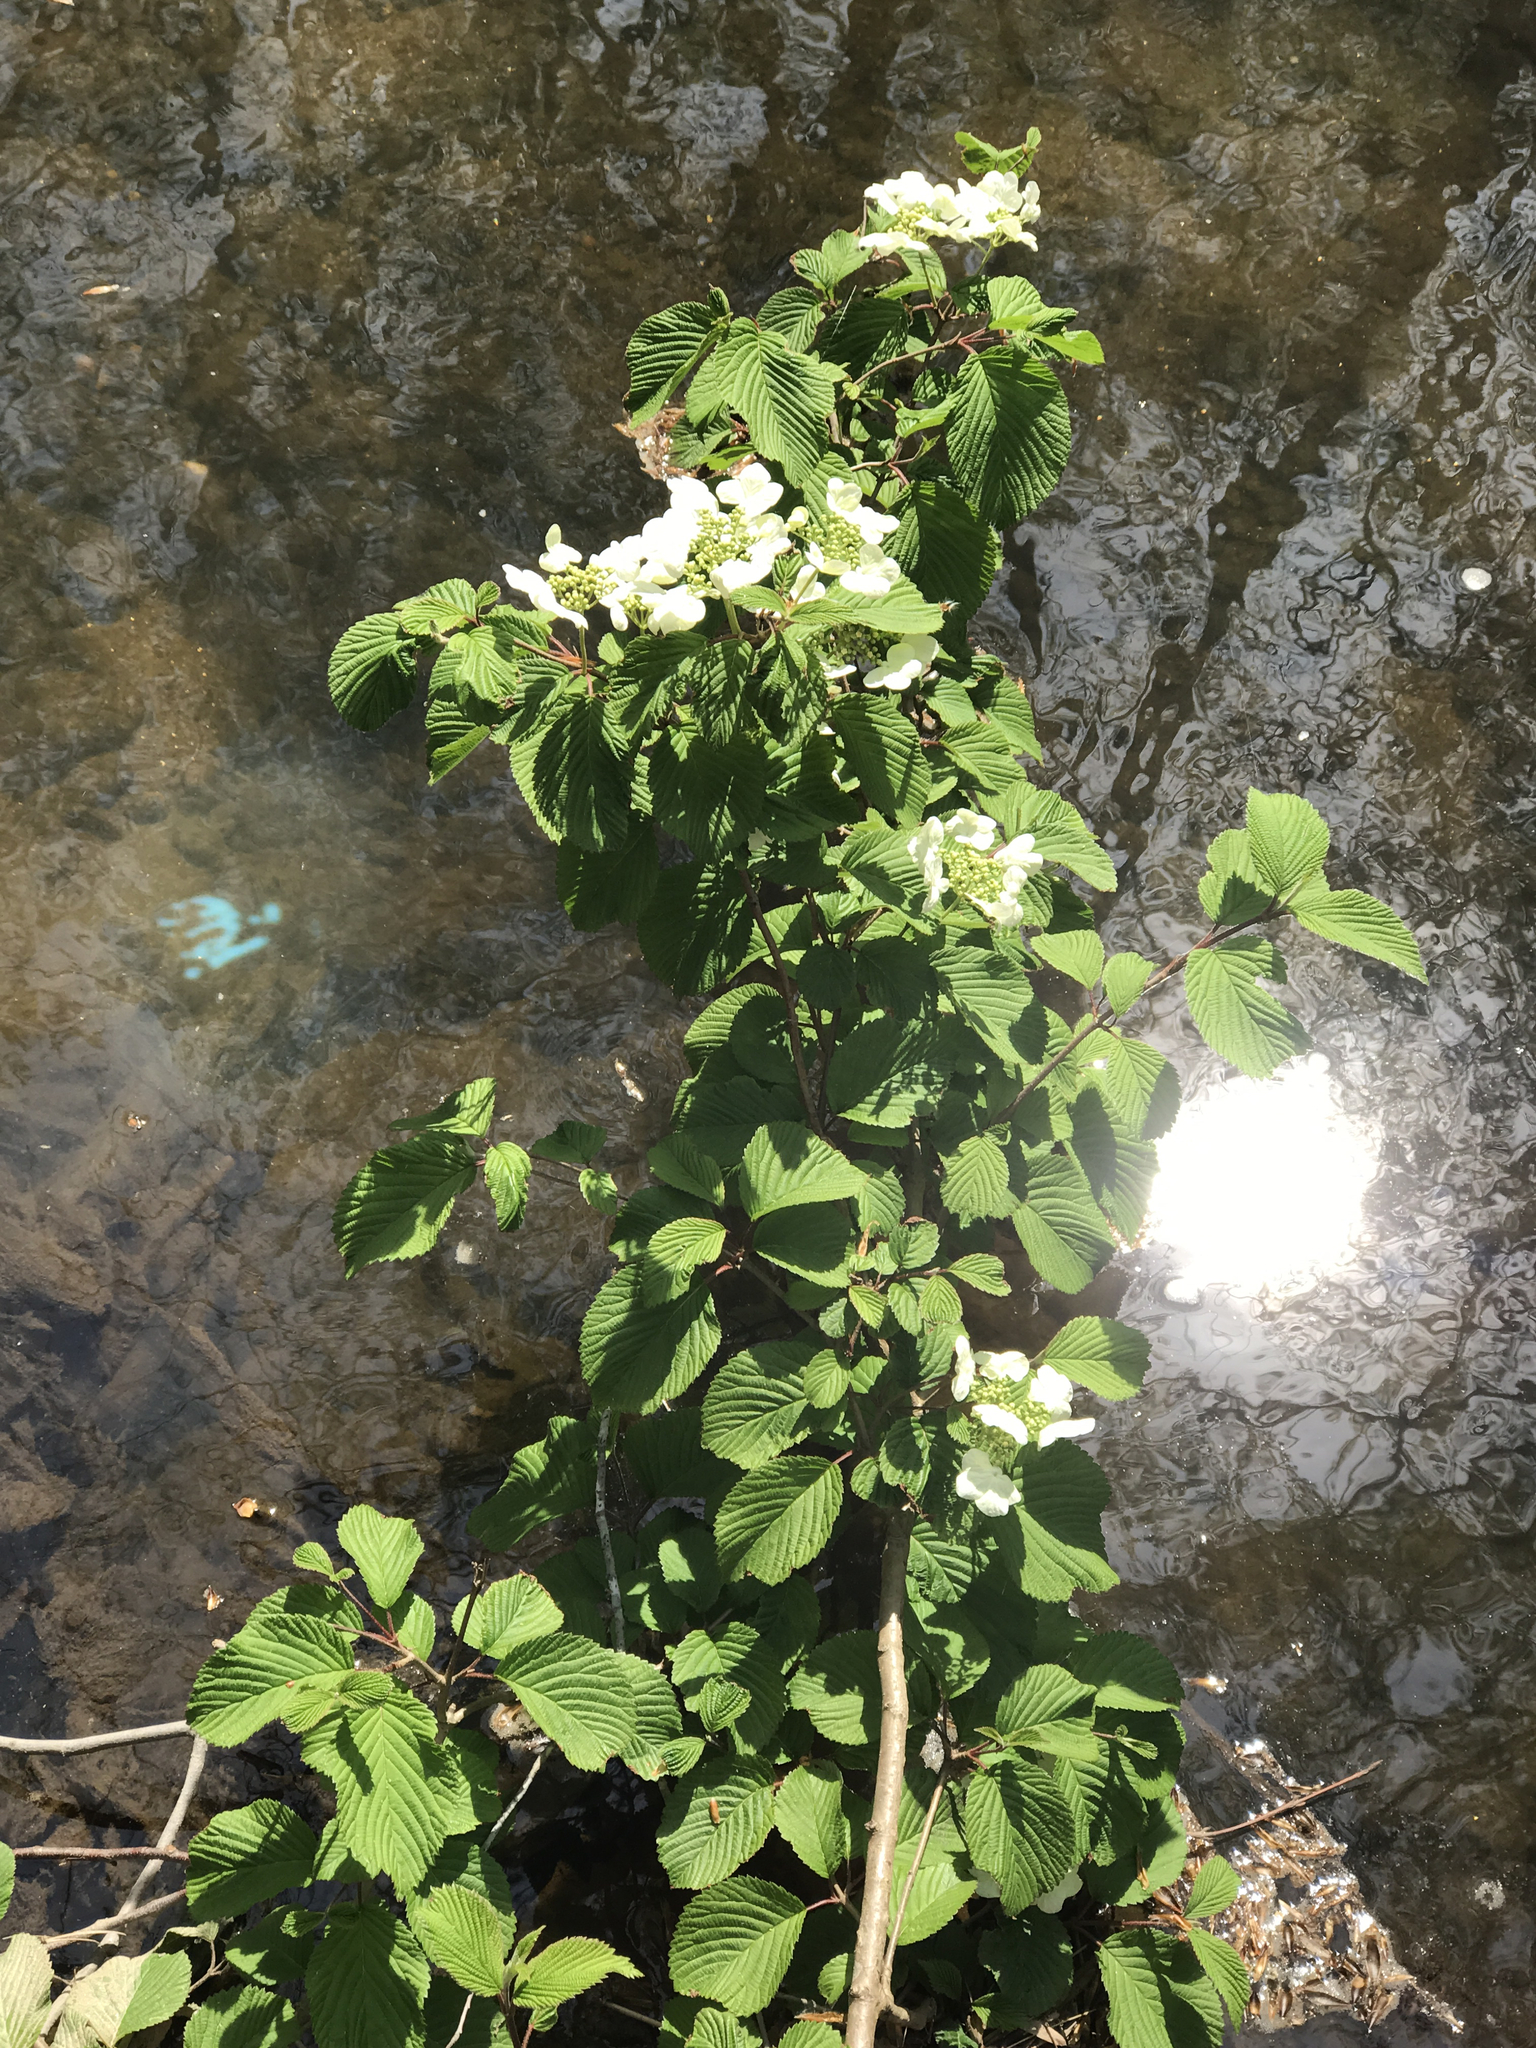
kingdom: Plantae
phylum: Tracheophyta
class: Magnoliopsida
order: Dipsacales
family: Viburnaceae
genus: Viburnum
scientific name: Viburnum plicatum
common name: Japanese snowball
